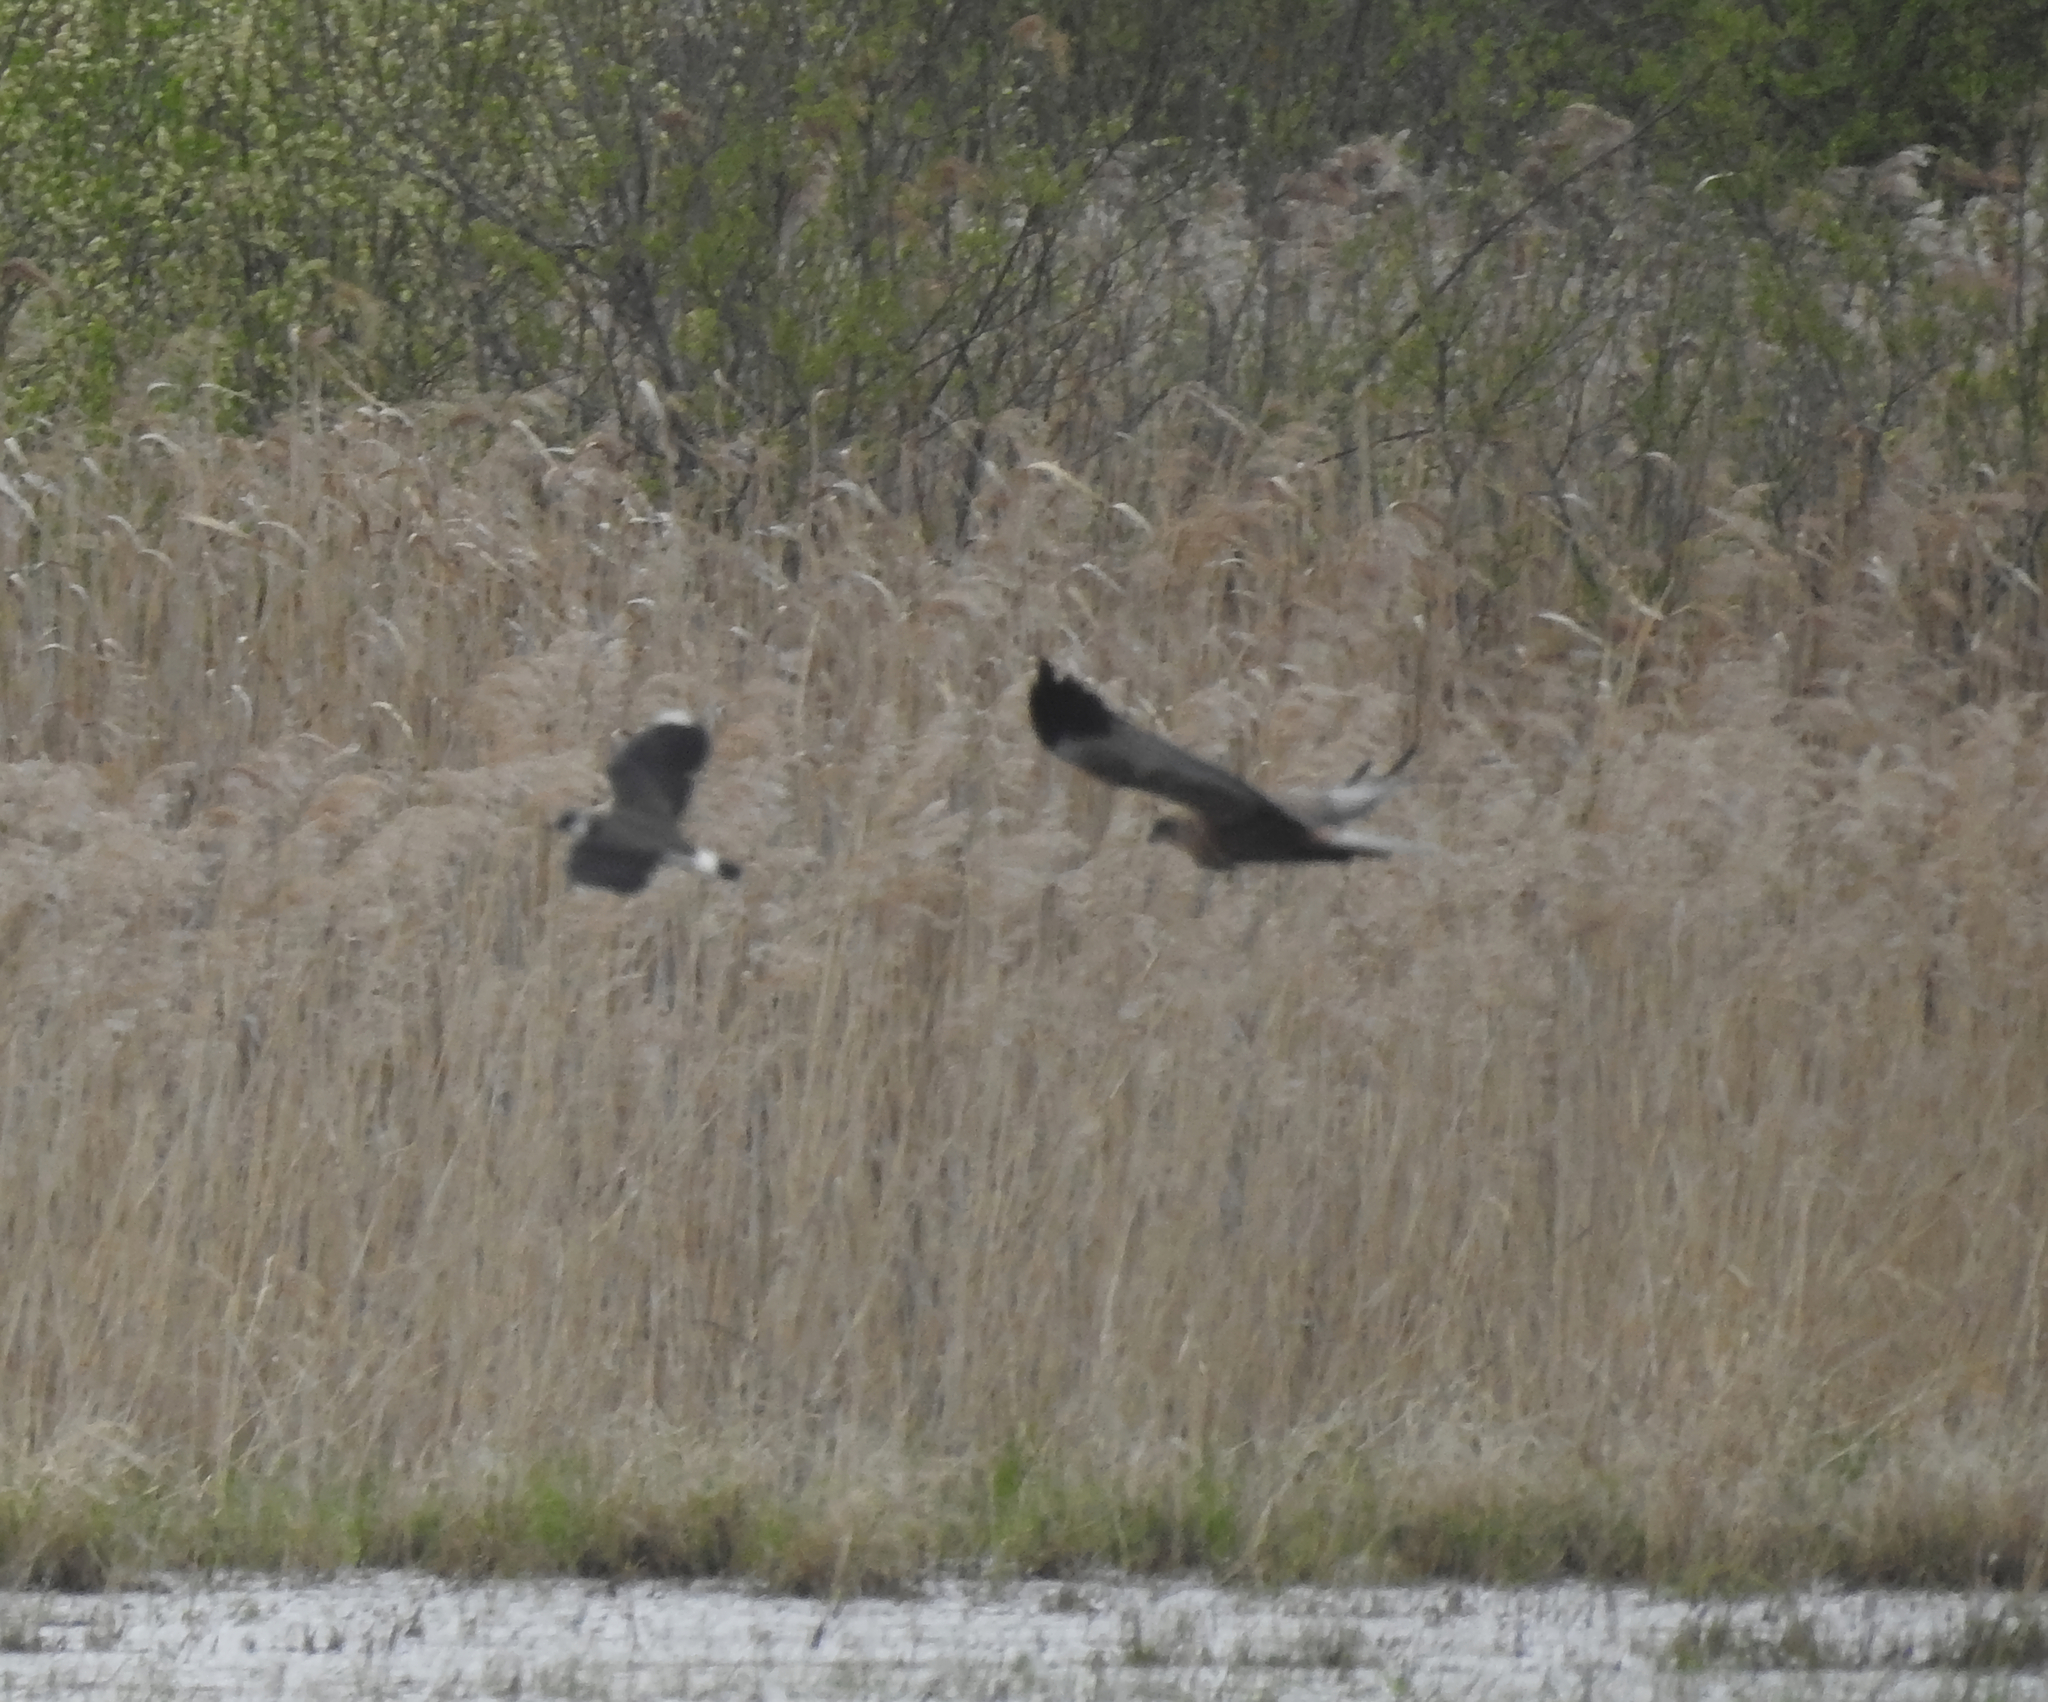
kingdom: Animalia
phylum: Chordata
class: Aves
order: Accipitriformes
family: Accipitridae
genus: Circus
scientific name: Circus aeruginosus
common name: Western marsh harrier
